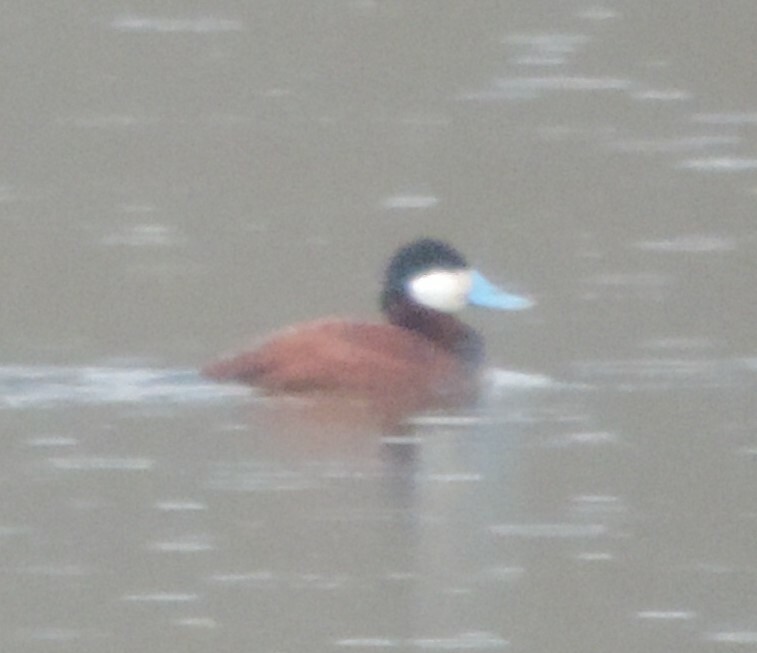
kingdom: Animalia
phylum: Chordata
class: Aves
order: Anseriformes
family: Anatidae
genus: Oxyura
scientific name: Oxyura jamaicensis
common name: Ruddy duck
